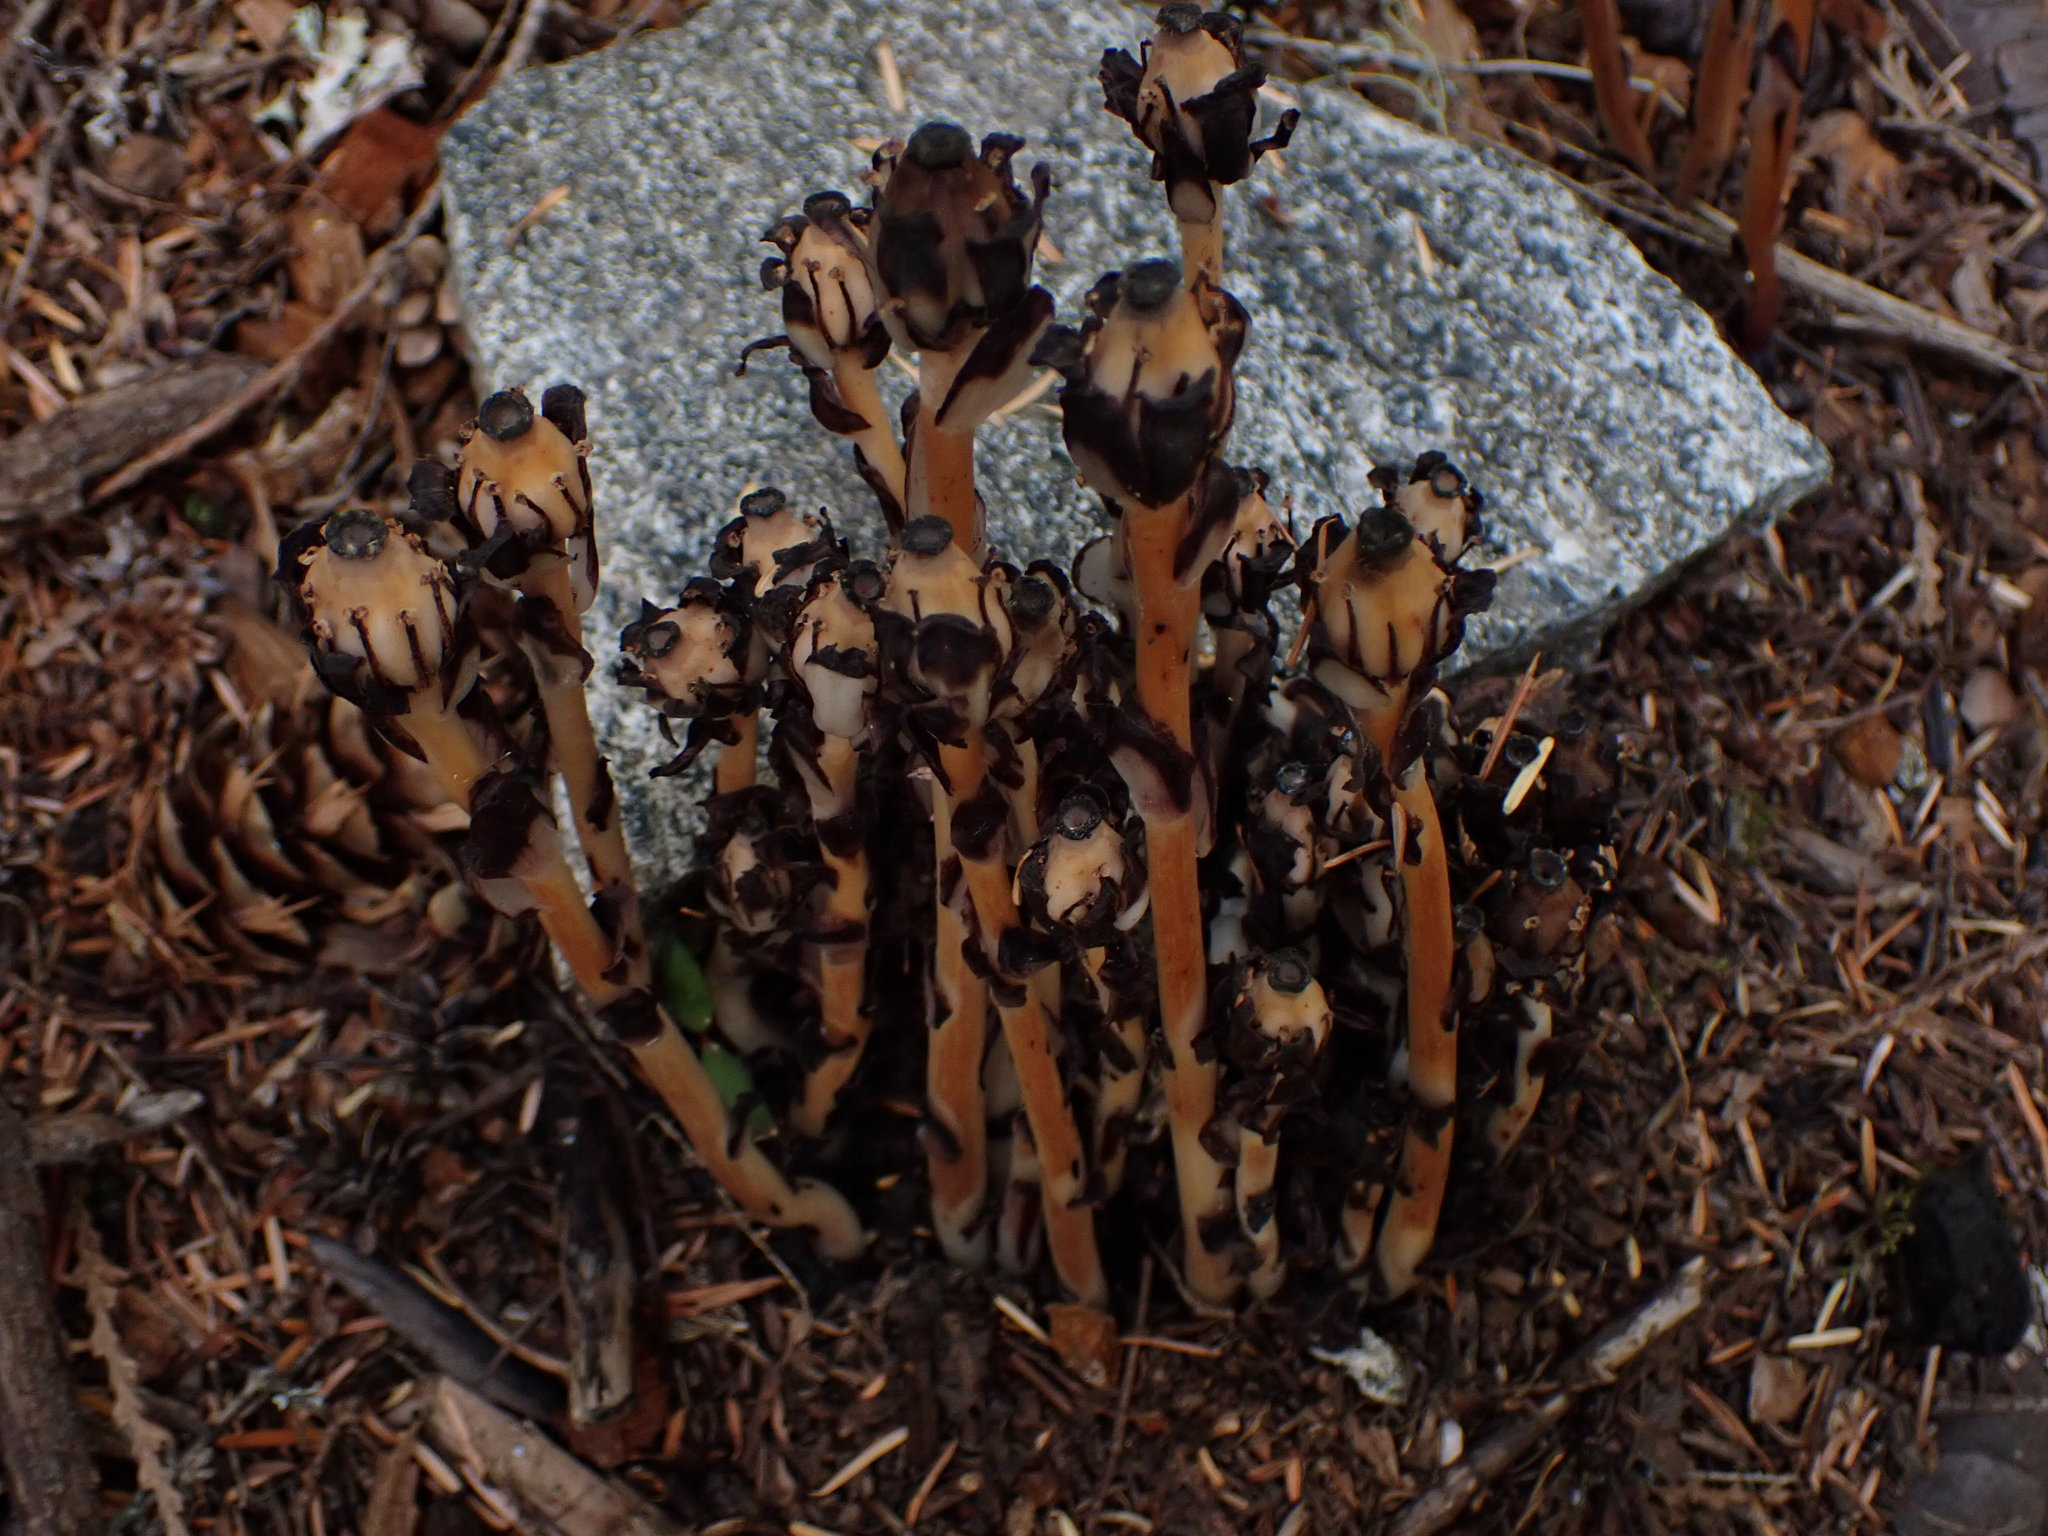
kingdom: Plantae
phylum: Tracheophyta
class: Magnoliopsida
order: Ericales
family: Ericaceae
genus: Monotropa
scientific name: Monotropa uniflora
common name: Convulsion root
